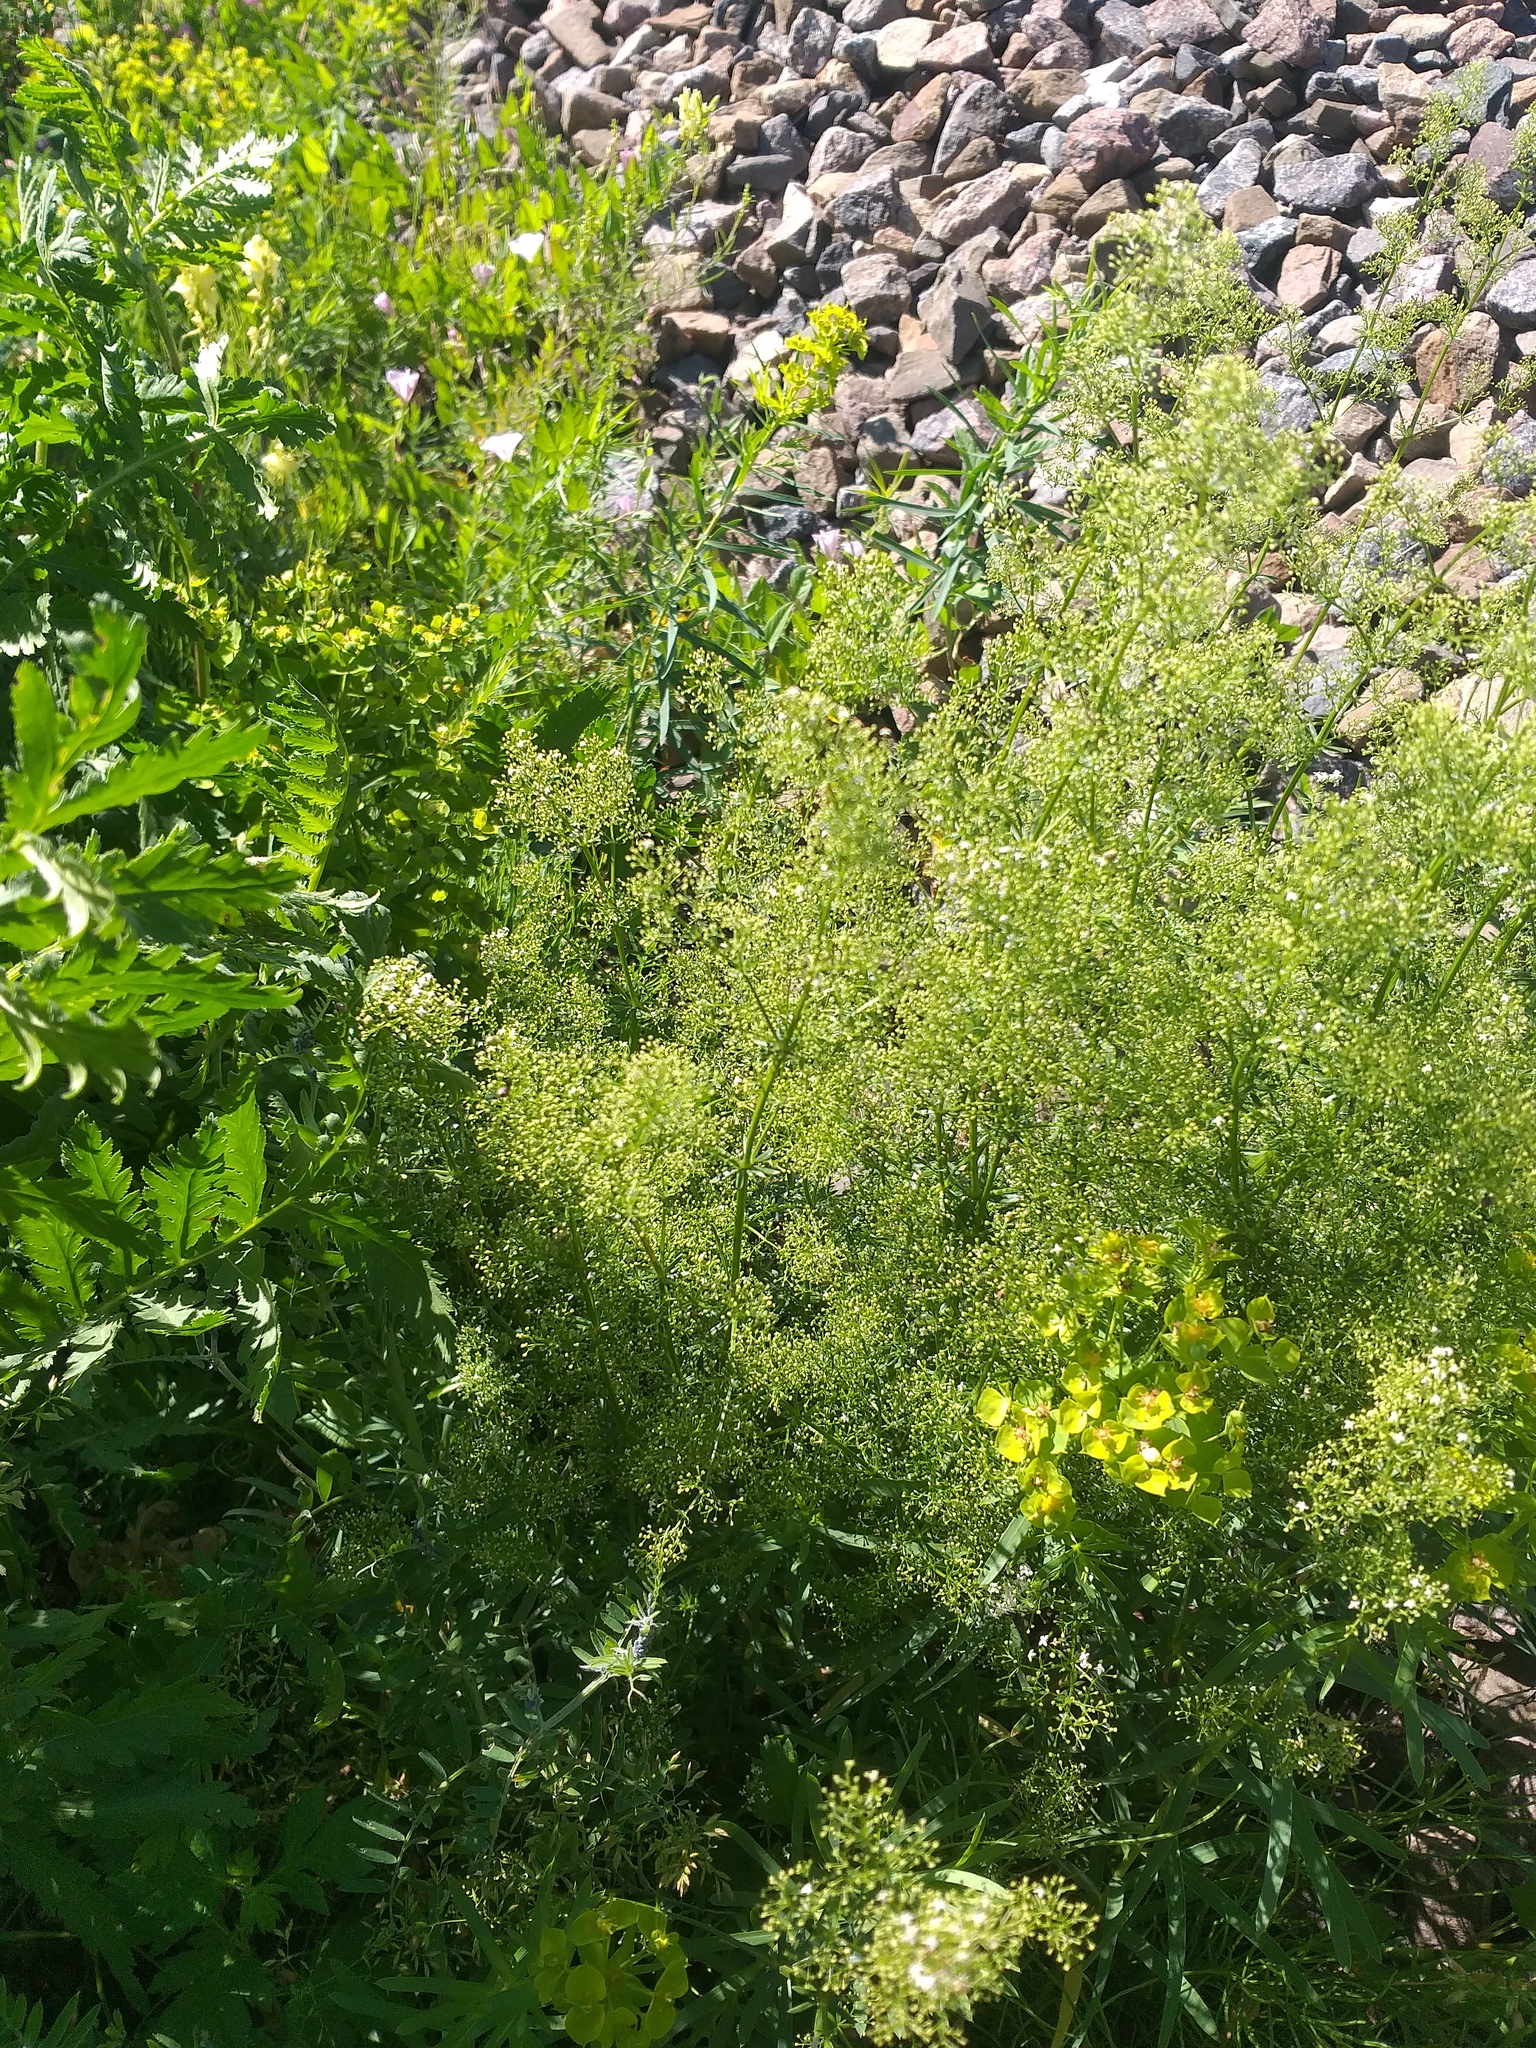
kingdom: Plantae
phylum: Tracheophyta
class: Magnoliopsida
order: Gentianales
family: Rubiaceae
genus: Galium
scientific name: Galium mollugo
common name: Hedge bedstraw
